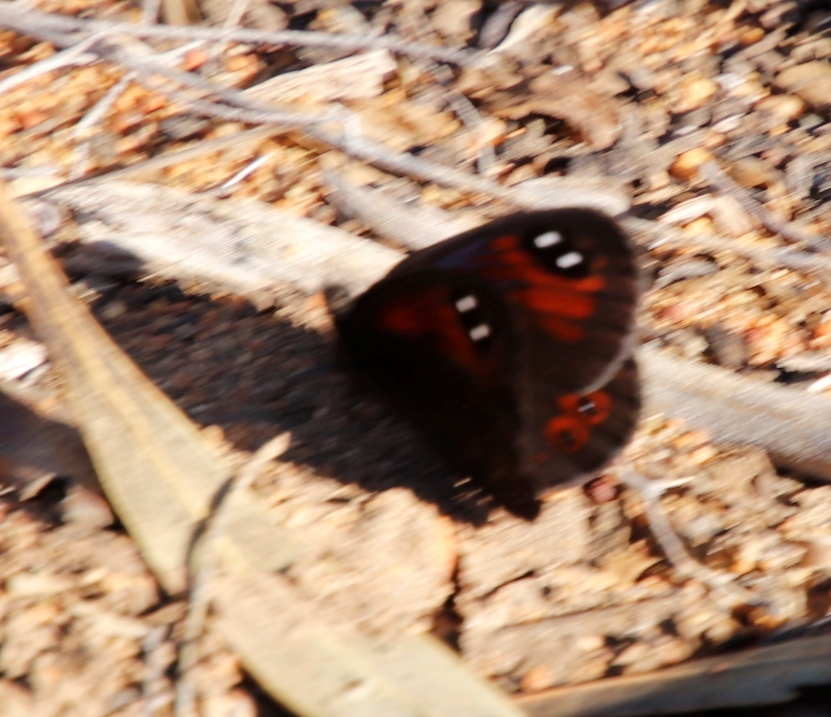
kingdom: Animalia
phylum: Arthropoda
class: Insecta
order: Lepidoptera
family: Nymphalidae
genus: Tarsocera
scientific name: Tarsocera
